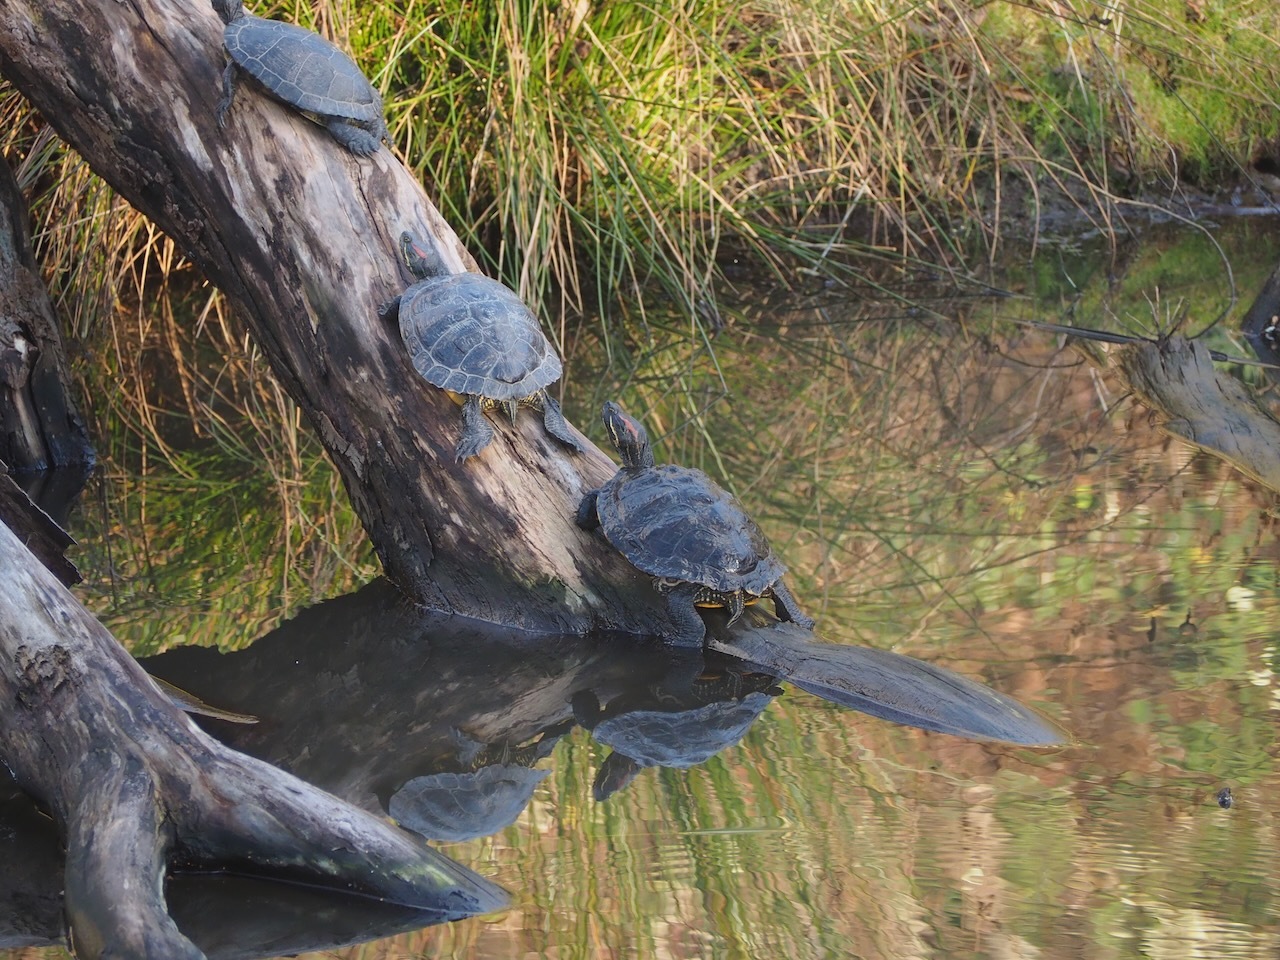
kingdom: Animalia
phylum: Chordata
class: Testudines
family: Emydidae
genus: Trachemys
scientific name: Trachemys scripta
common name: Slider
